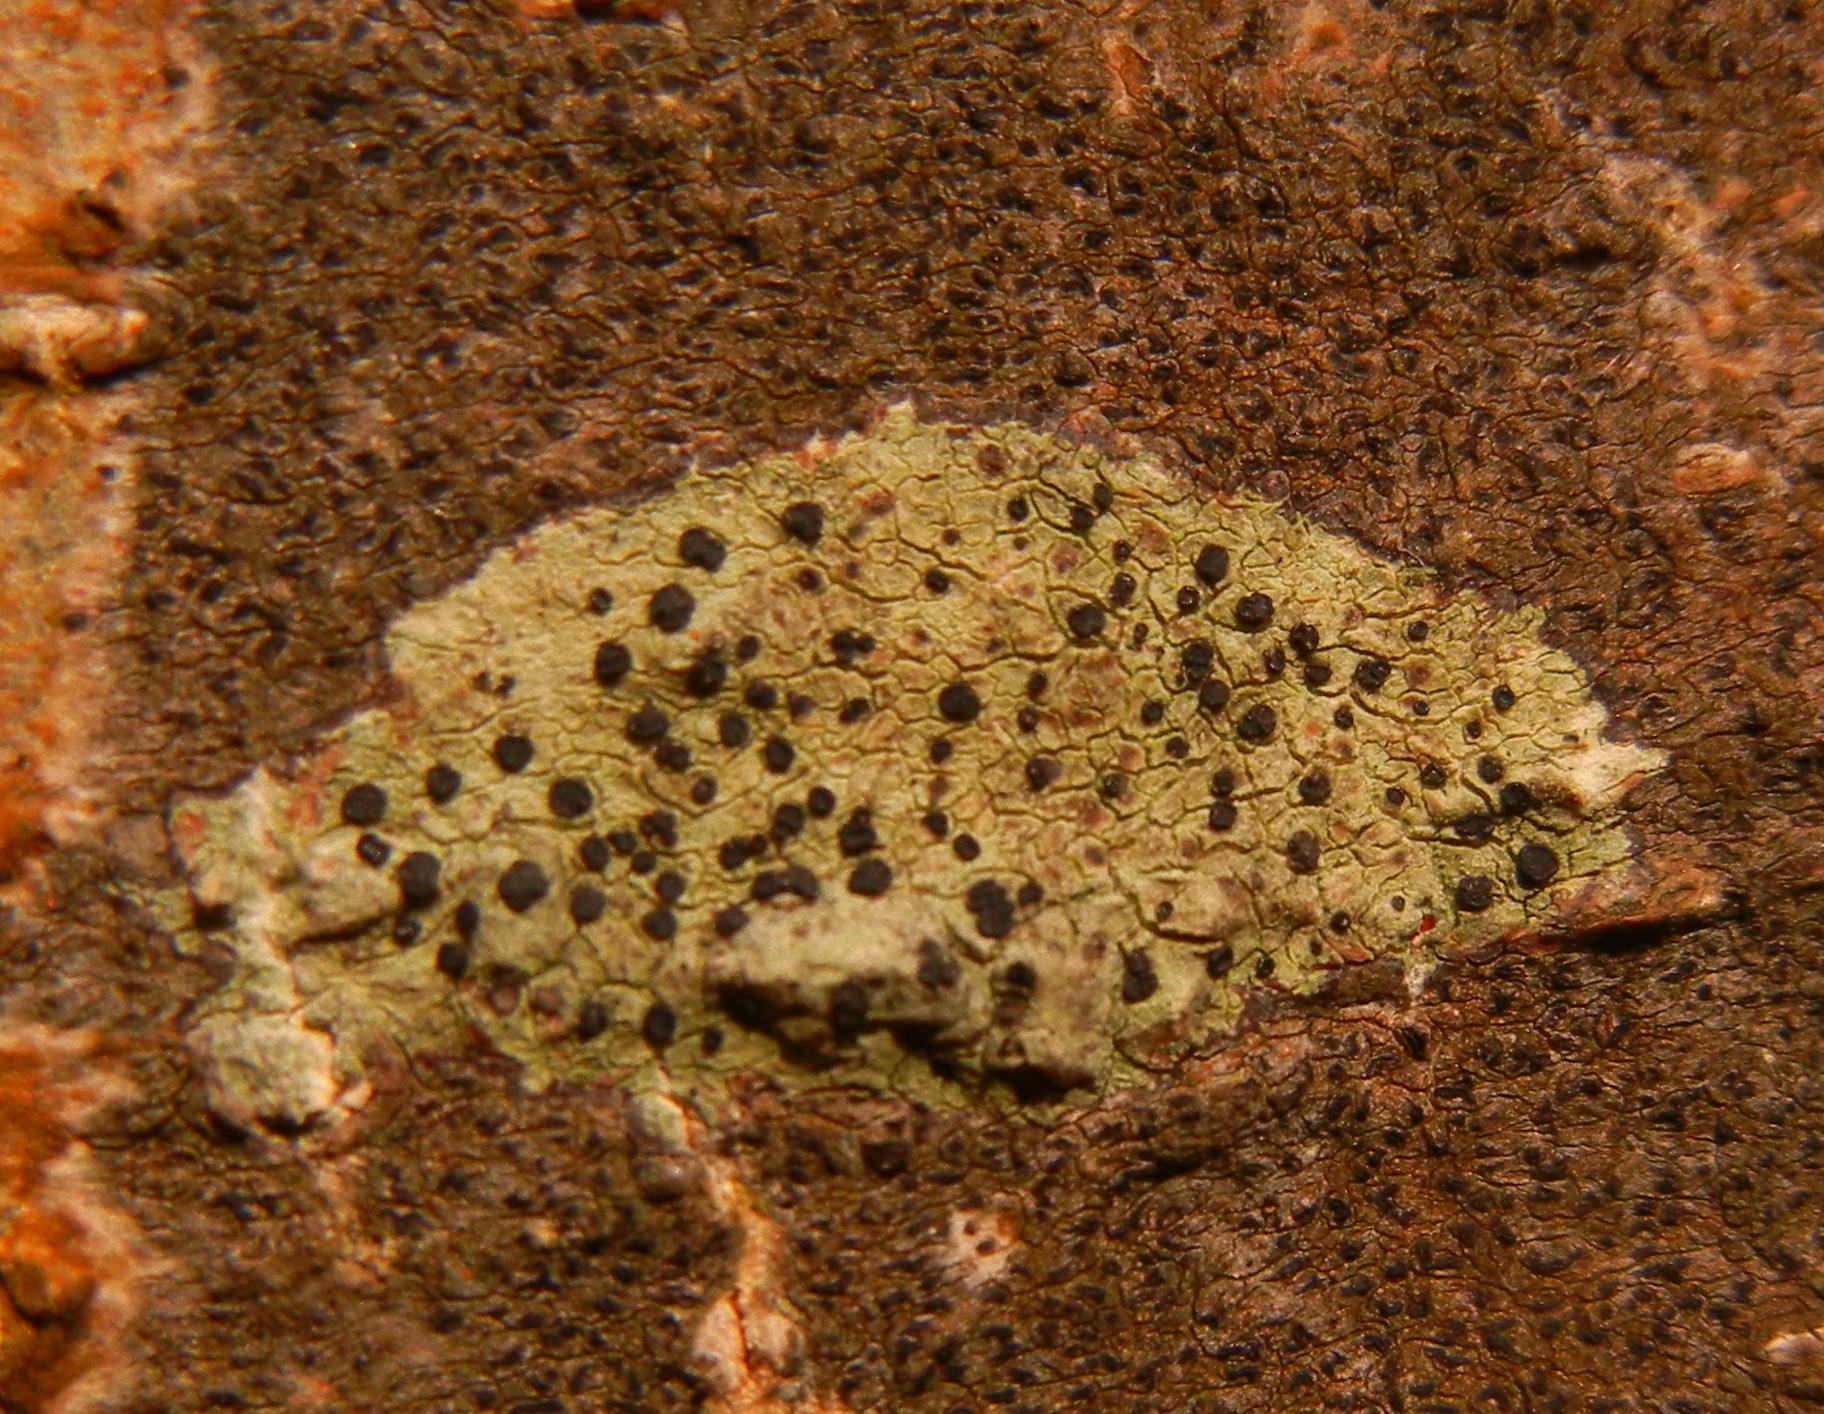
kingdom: Fungi
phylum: Ascomycota
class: Lecanoromycetes
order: Lecanorales
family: Lecanoraceae
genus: Lecidella
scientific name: Lecidella elaeochroma
